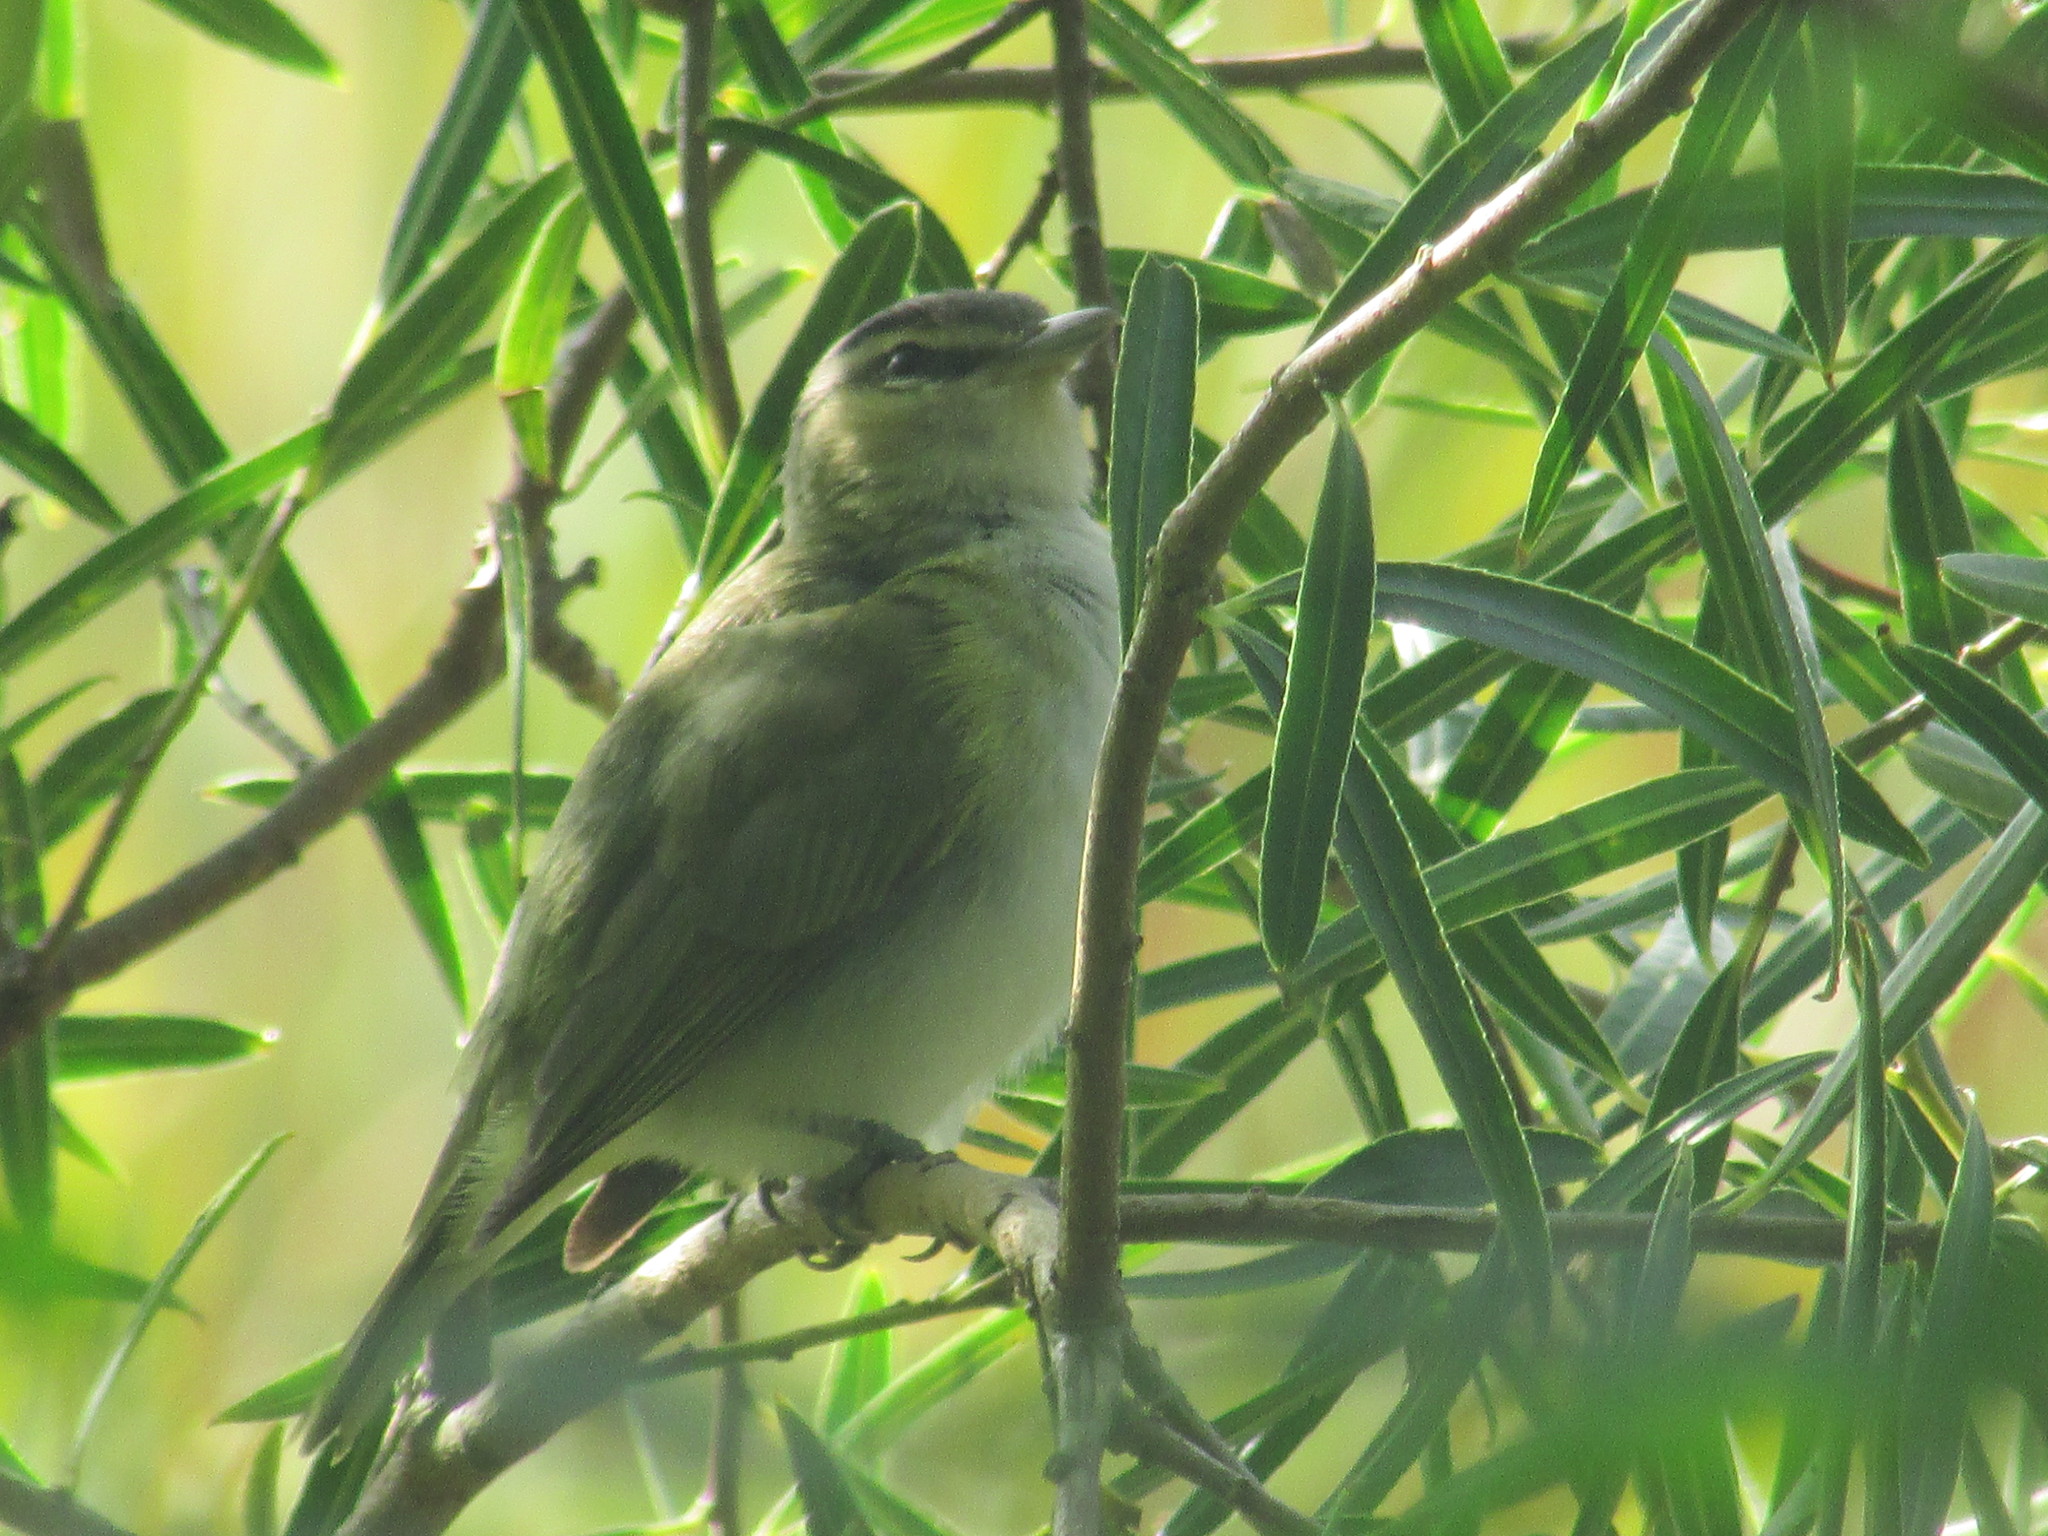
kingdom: Animalia
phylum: Chordata
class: Aves
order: Passeriformes
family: Vireonidae
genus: Vireo
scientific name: Vireo olivaceus
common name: Red-eyed vireo
